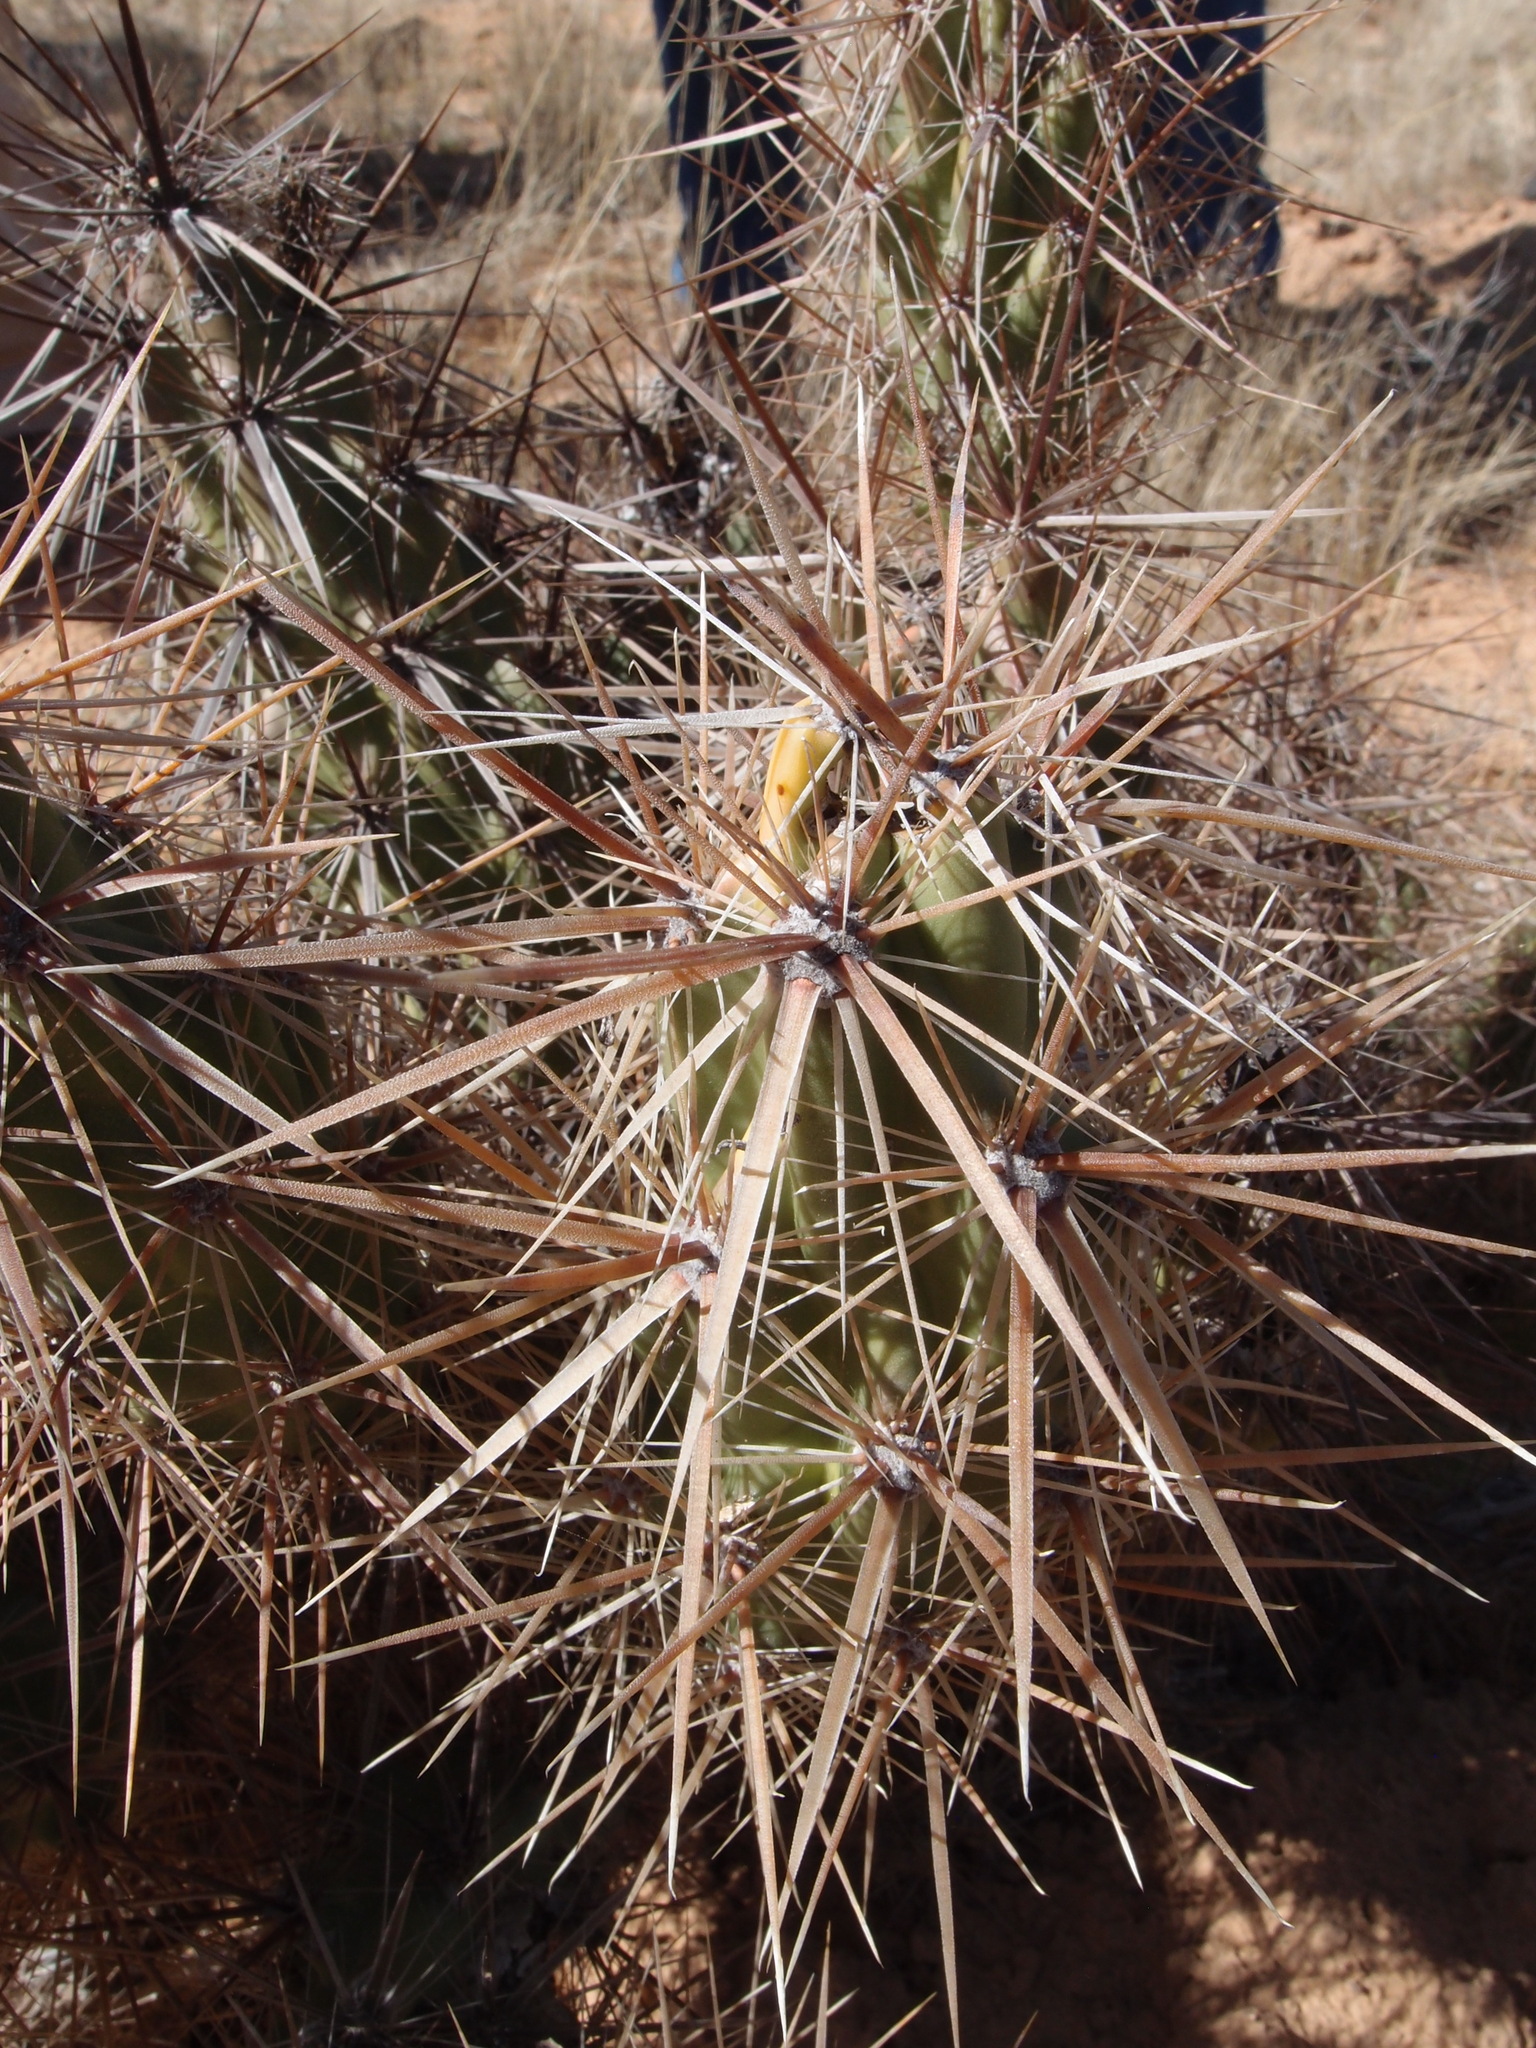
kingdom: Plantae
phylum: Tracheophyta
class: Magnoliopsida
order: Caryophyllales
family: Cactaceae
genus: Grusonia
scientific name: Grusonia kunzei
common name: Wright's club cholla
